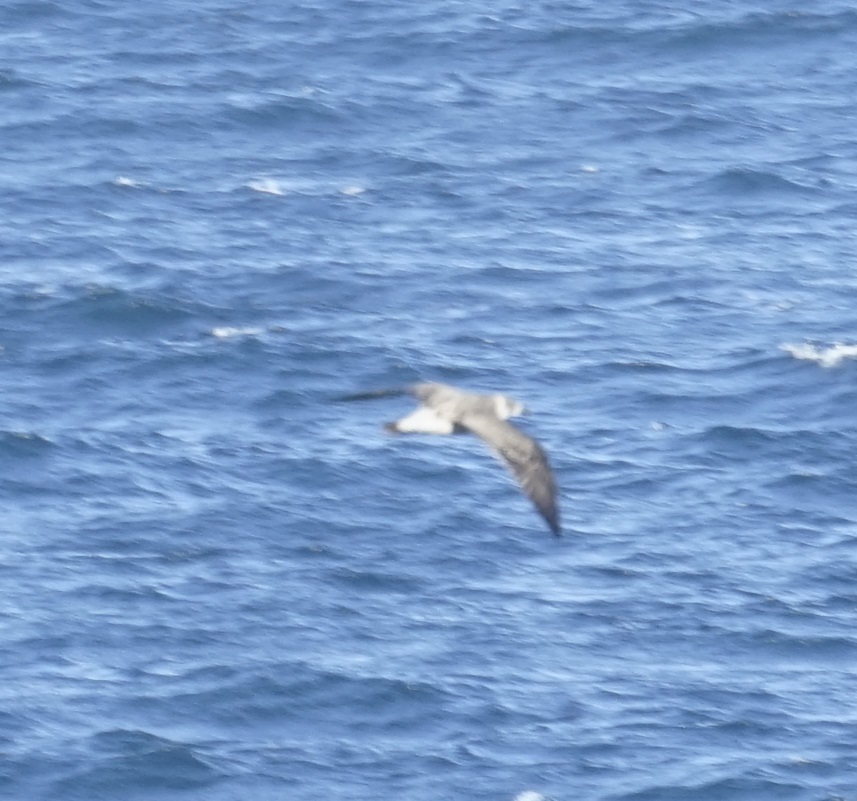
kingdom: Animalia
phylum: Chordata
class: Aves
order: Charadriiformes
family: Laridae
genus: Larus
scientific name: Larus dominicanus
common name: Kelp gull
